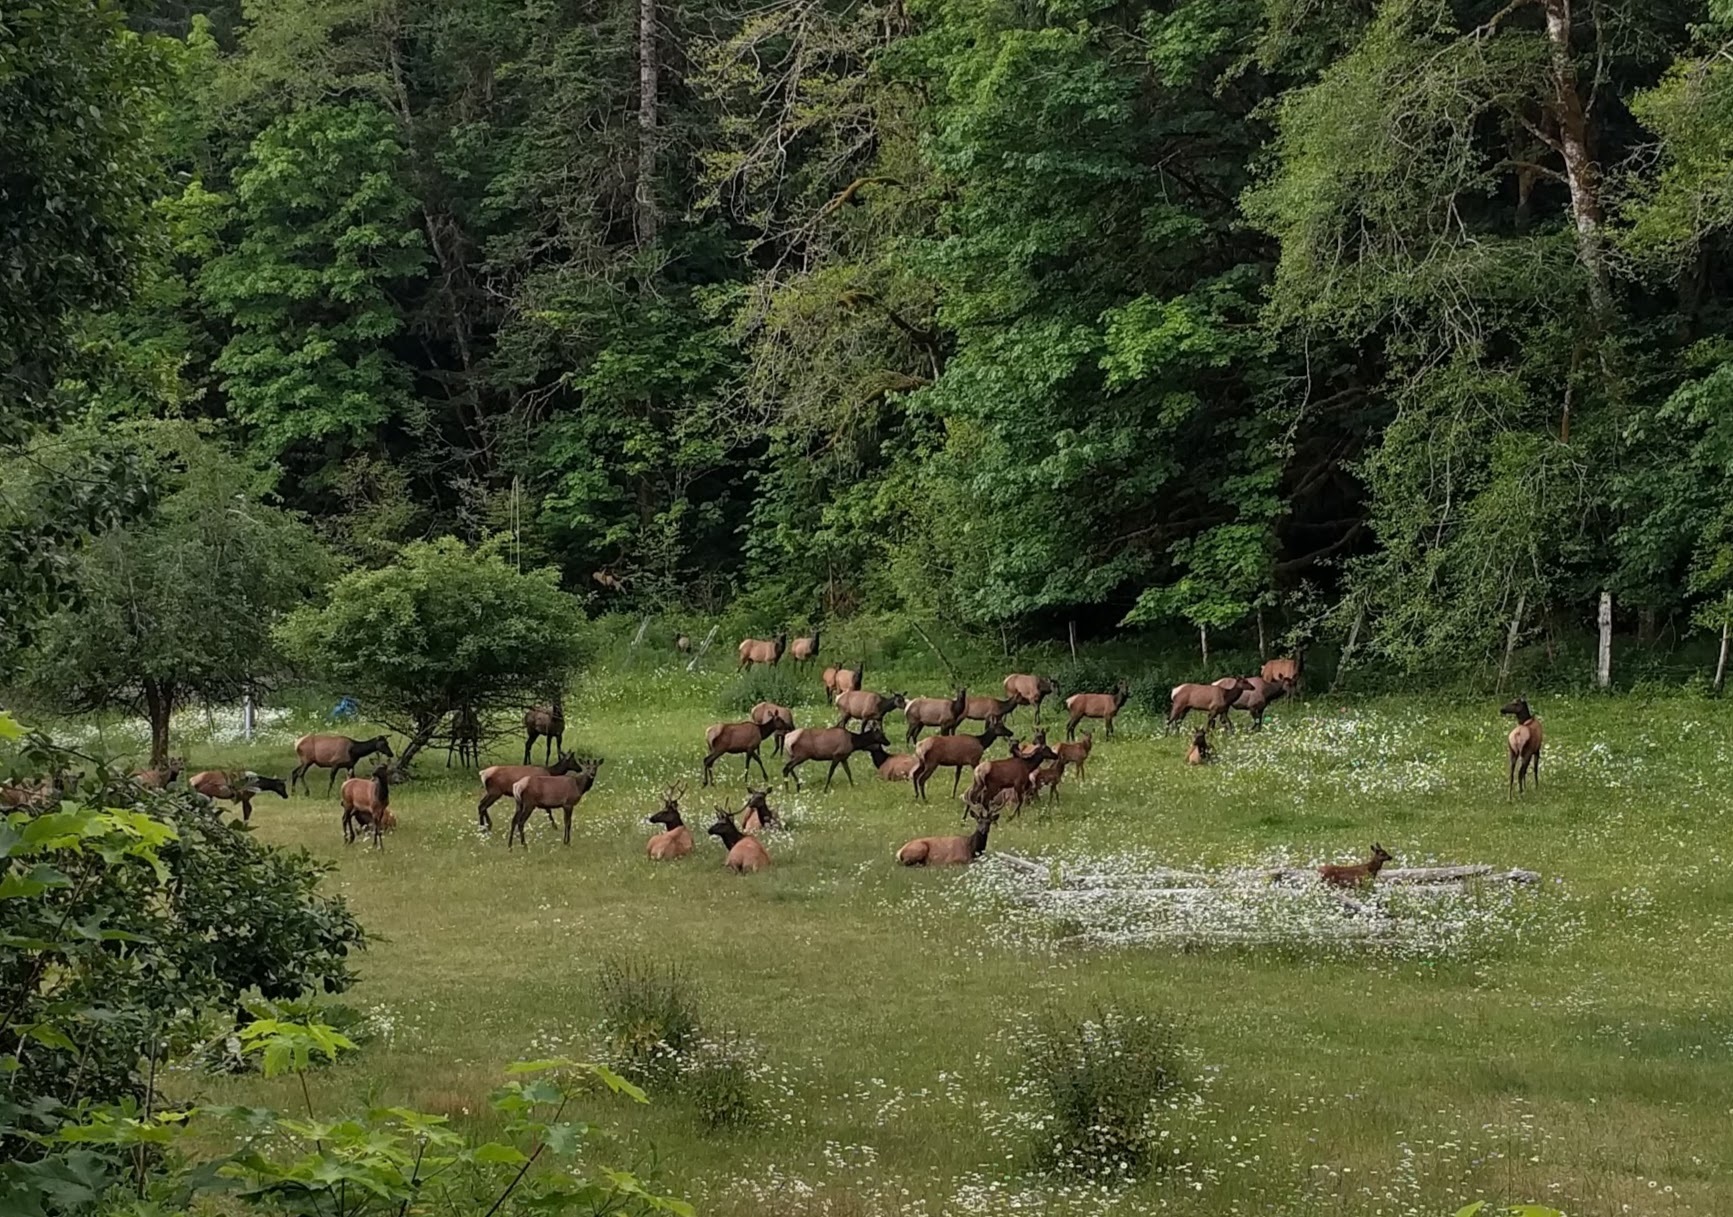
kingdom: Animalia
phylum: Chordata
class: Mammalia
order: Artiodactyla
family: Cervidae
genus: Cervus
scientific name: Cervus elaphus
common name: Red deer
